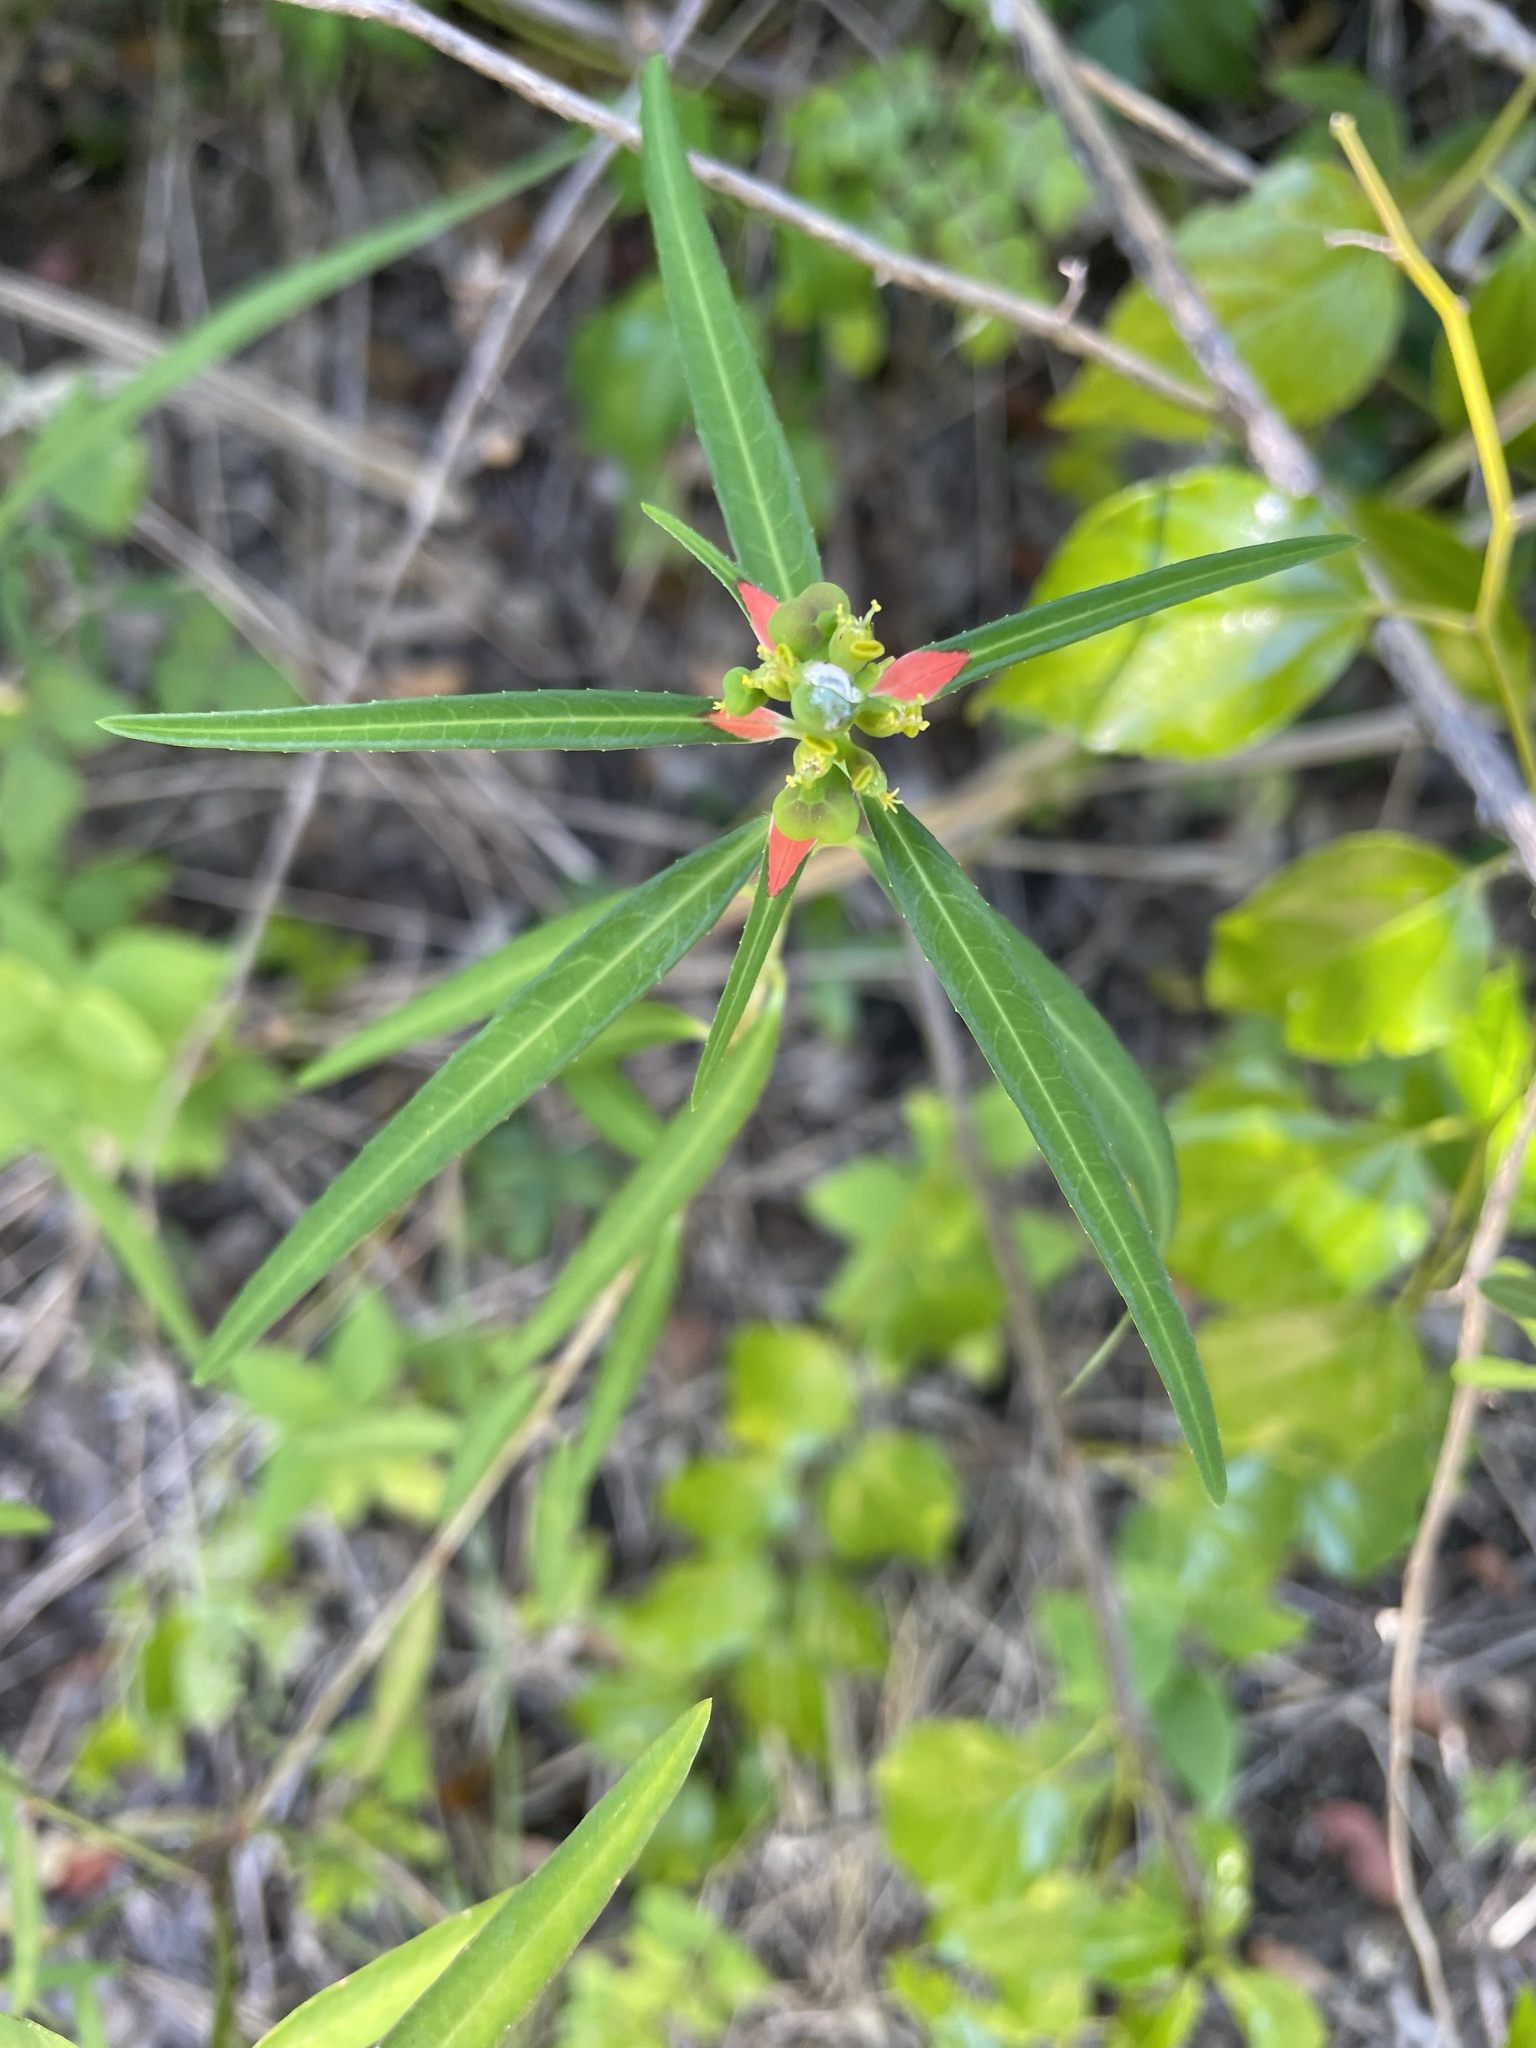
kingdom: Plantae
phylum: Tracheophyta
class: Magnoliopsida
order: Malpighiales
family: Euphorbiaceae
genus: Euphorbia
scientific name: Euphorbia heterophylla
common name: Mexican fireplant
